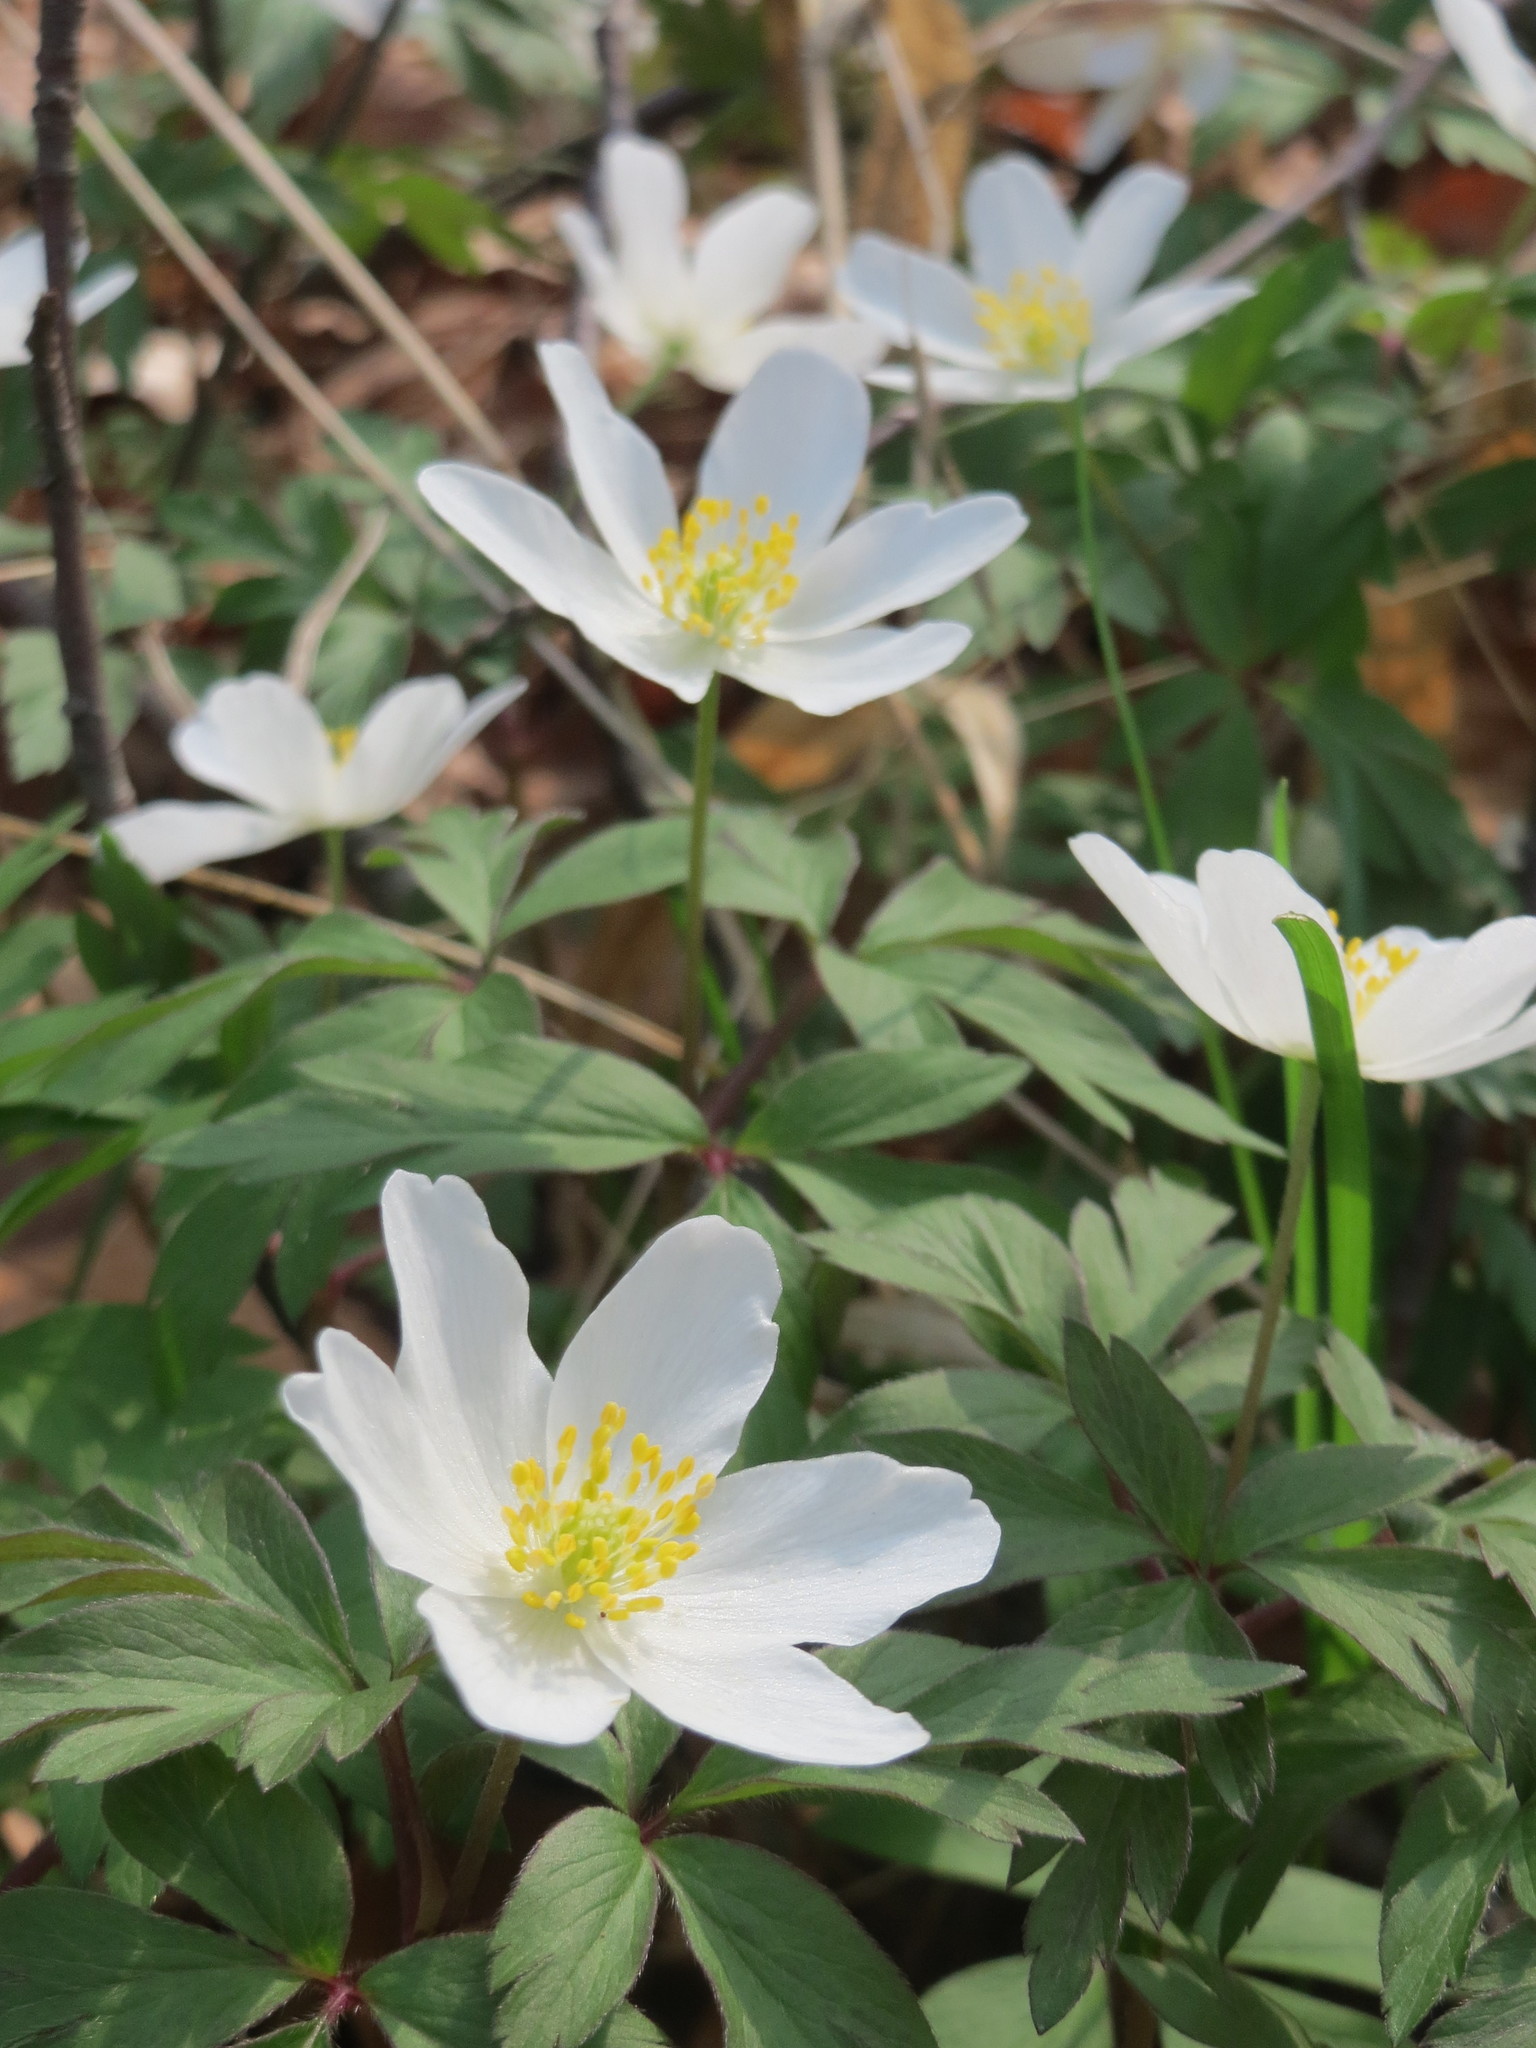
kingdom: Plantae
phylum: Tracheophyta
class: Magnoliopsida
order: Ranunculales
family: Ranunculaceae
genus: Anemone
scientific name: Anemone nemorosa
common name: Wood anemone
